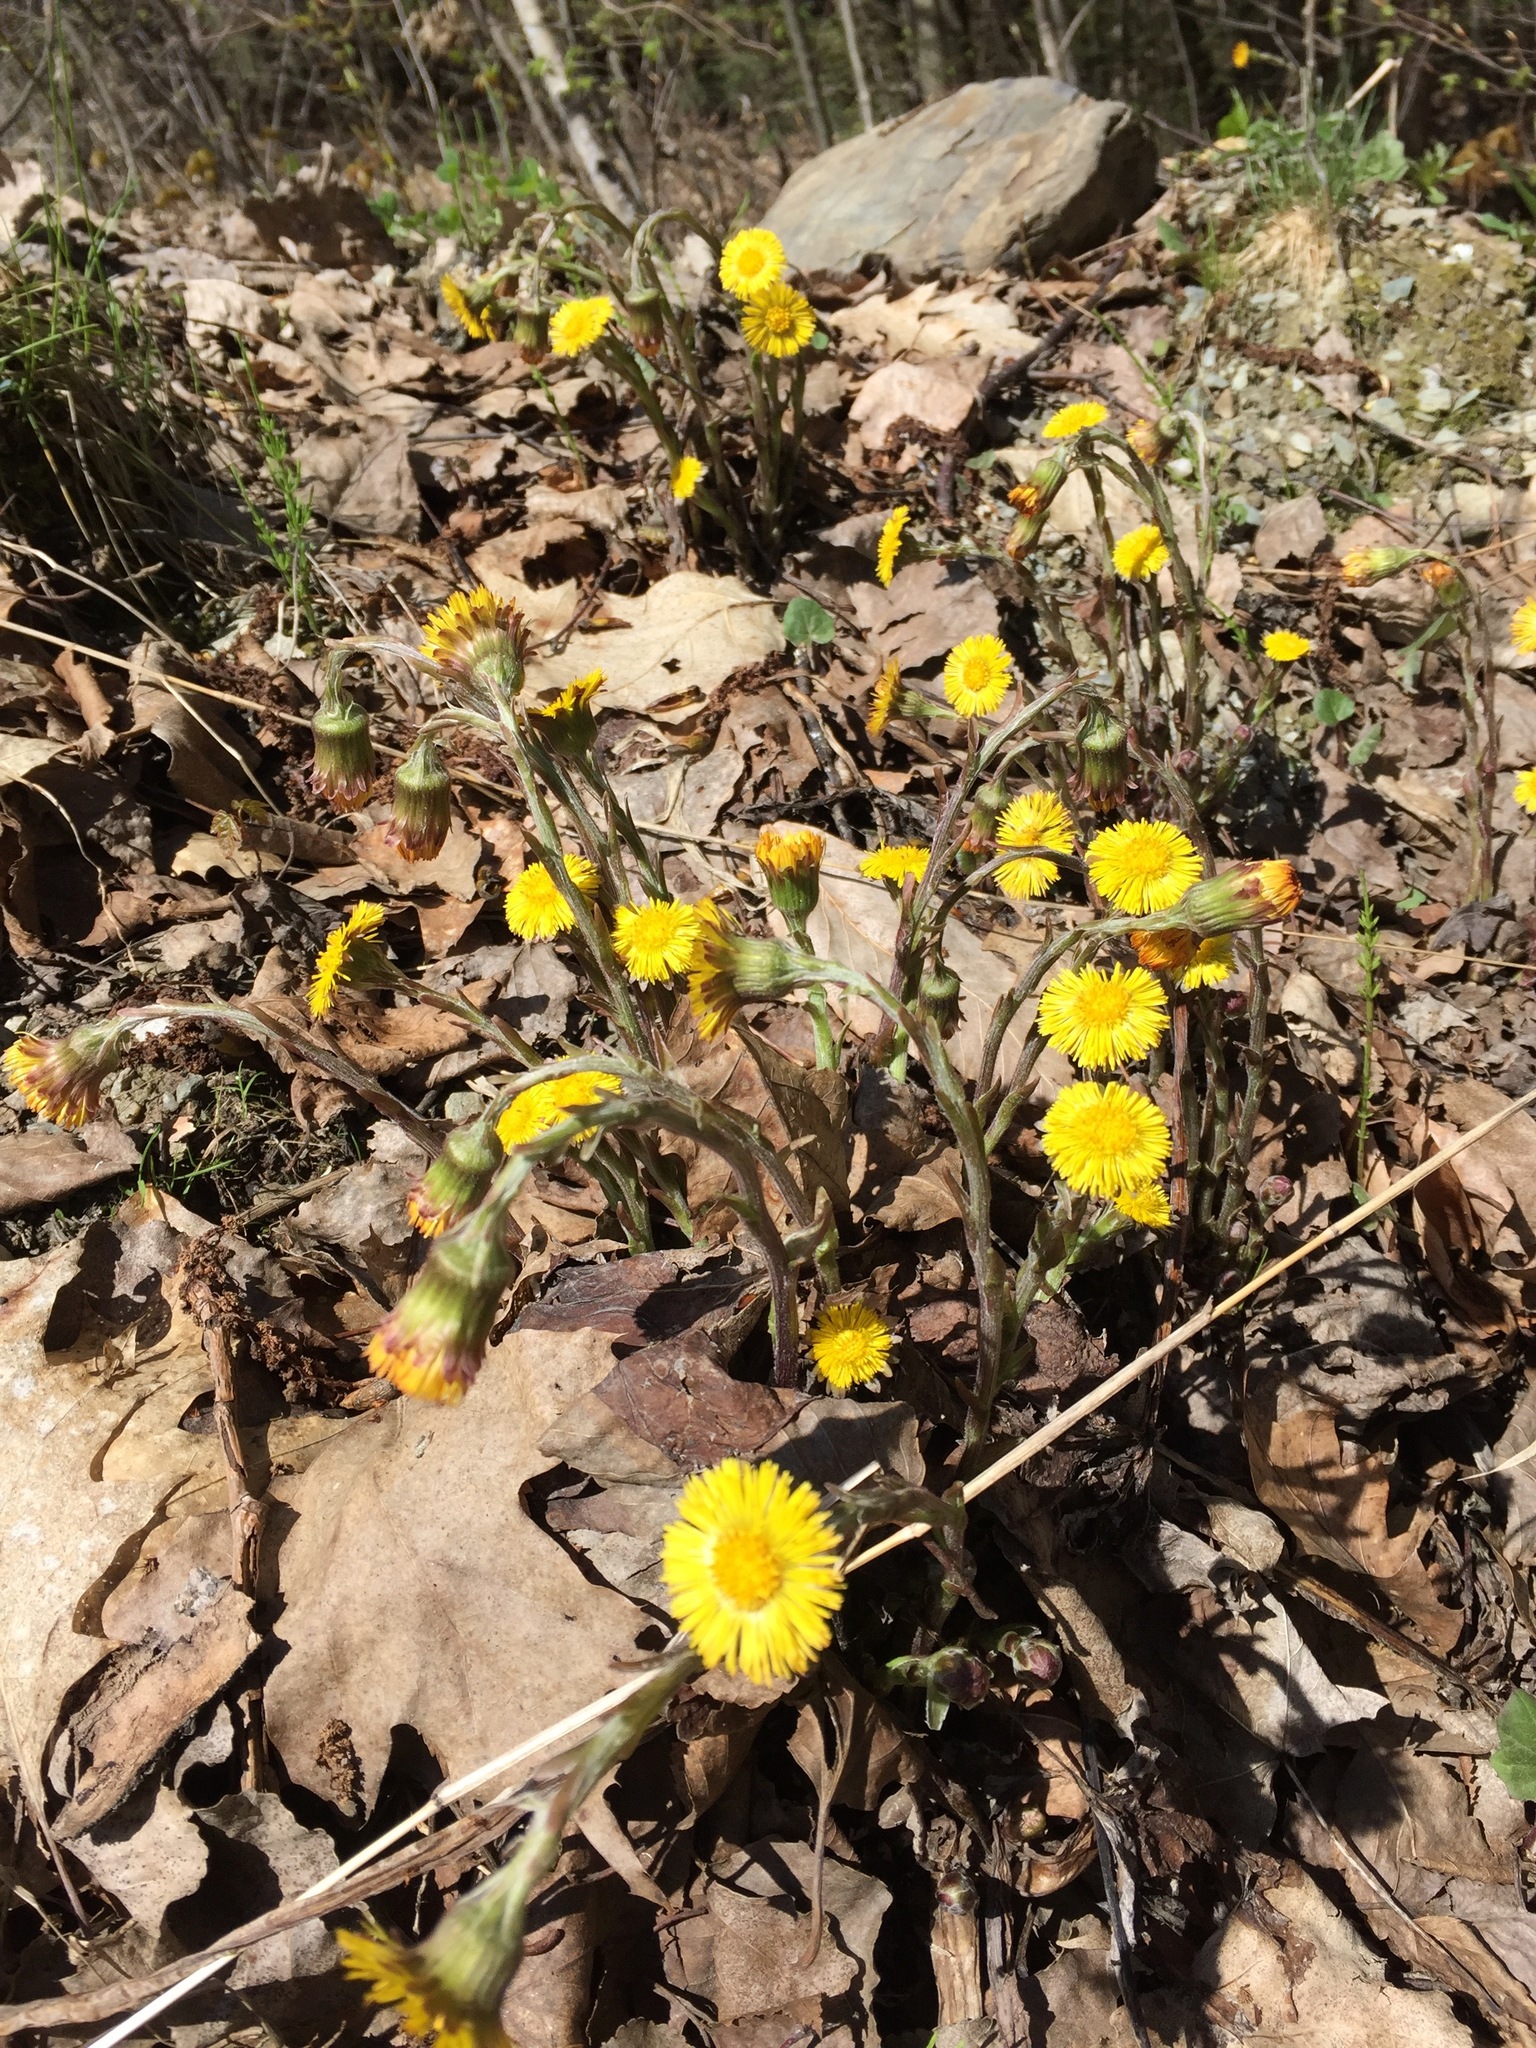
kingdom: Plantae
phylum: Tracheophyta
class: Magnoliopsida
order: Asterales
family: Asteraceae
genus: Tussilago
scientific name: Tussilago farfara
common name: Coltsfoot
